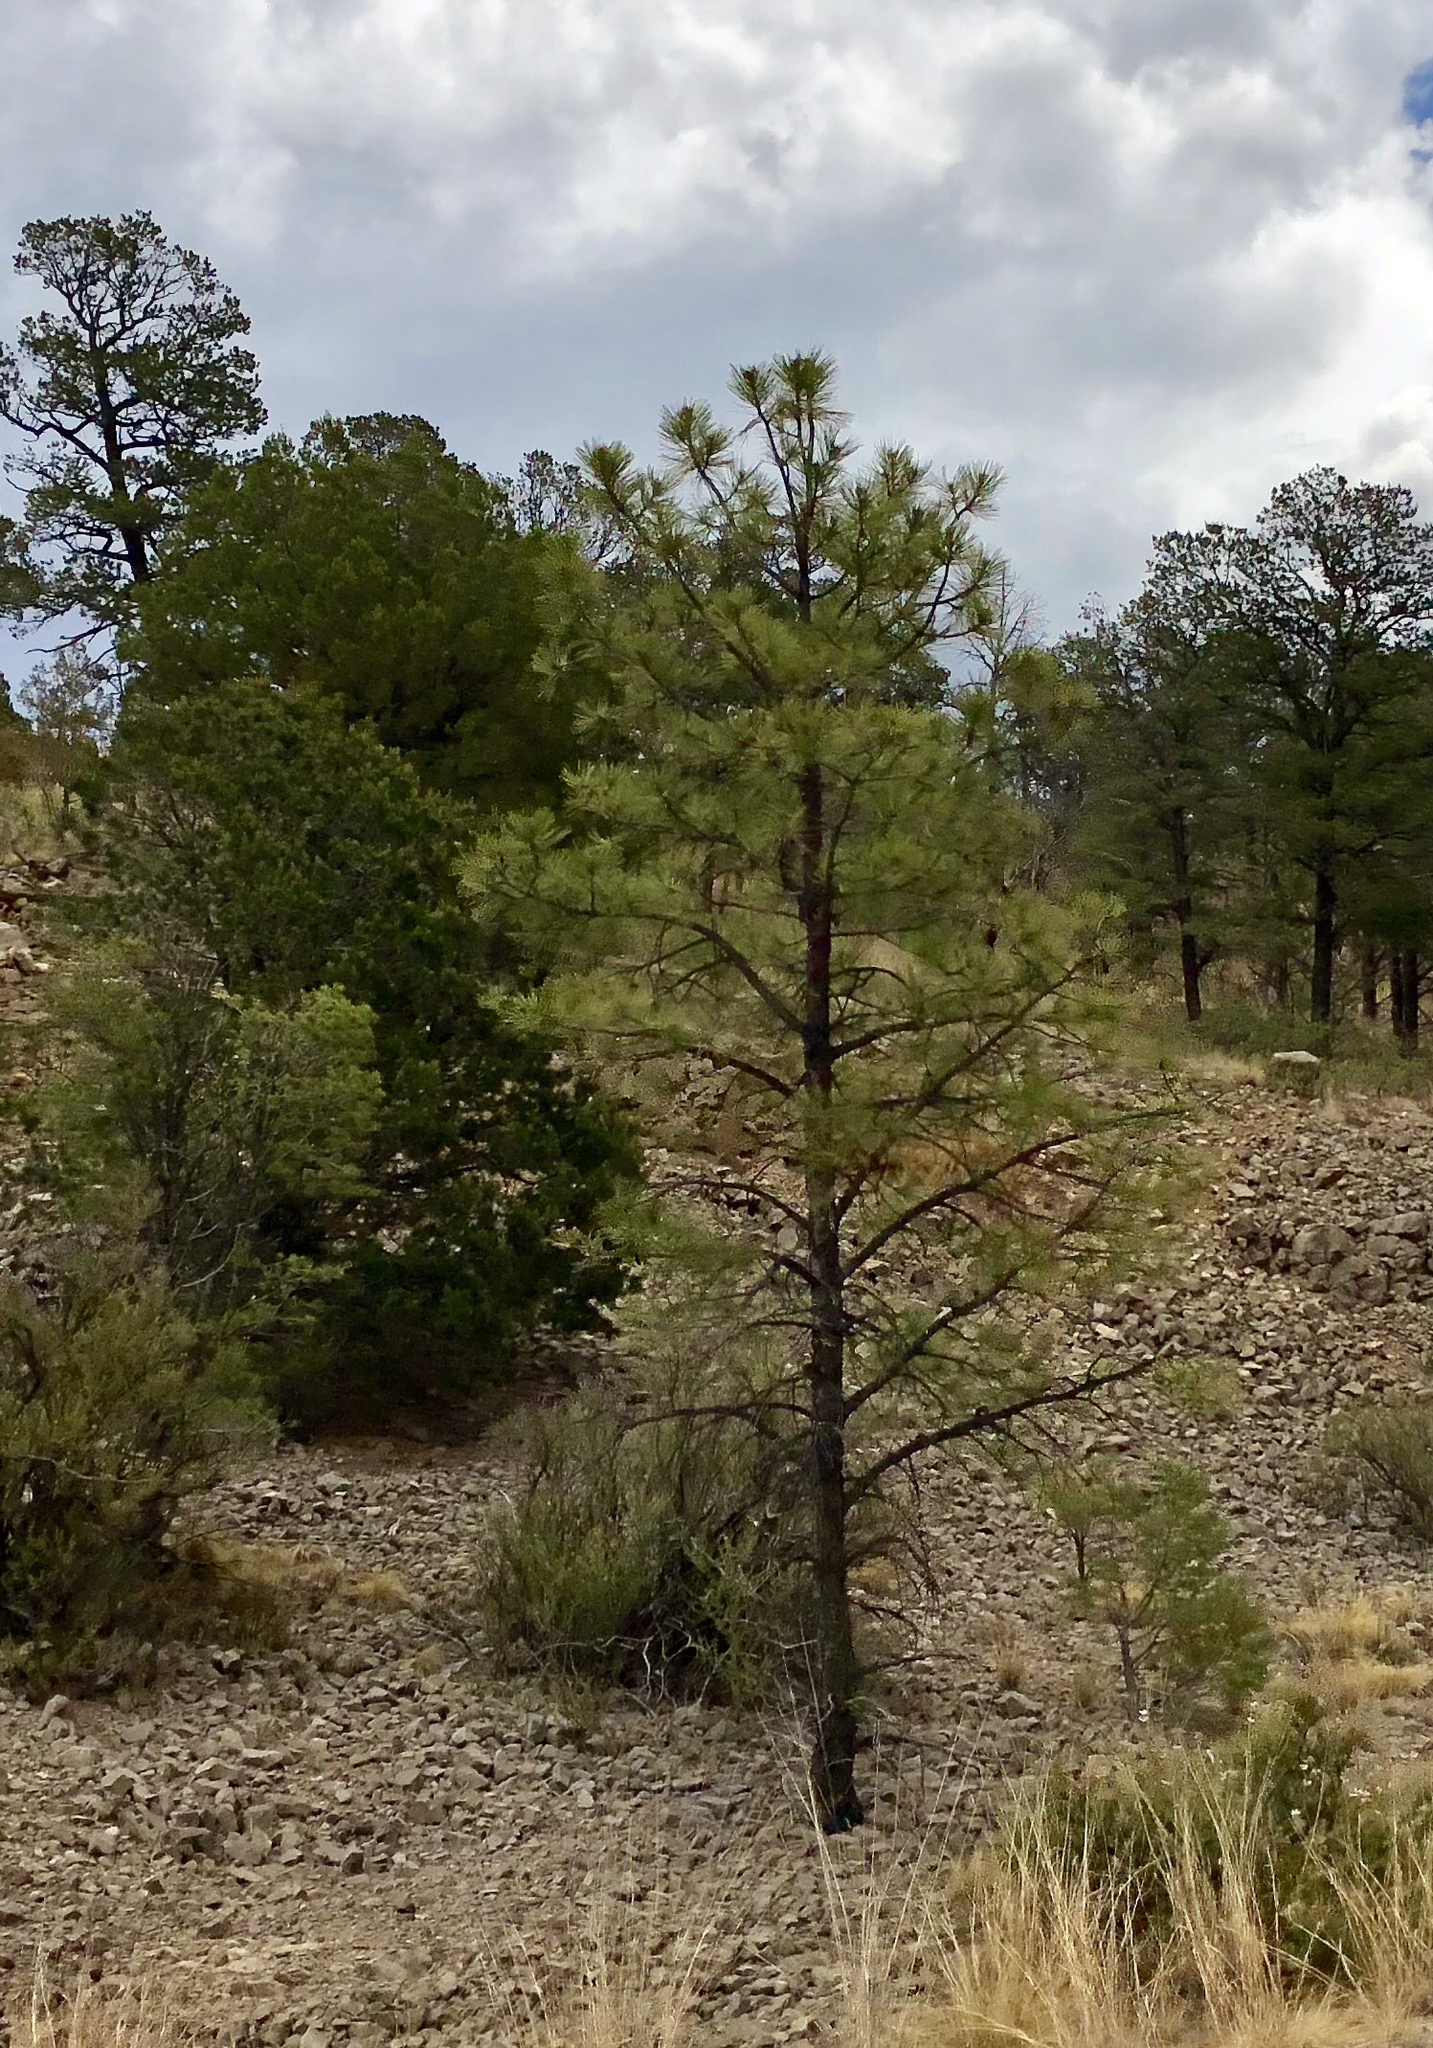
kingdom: Plantae
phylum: Tracheophyta
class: Pinopsida
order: Pinales
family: Pinaceae
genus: Pinus
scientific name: Pinus ponderosa
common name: Western yellow-pine
